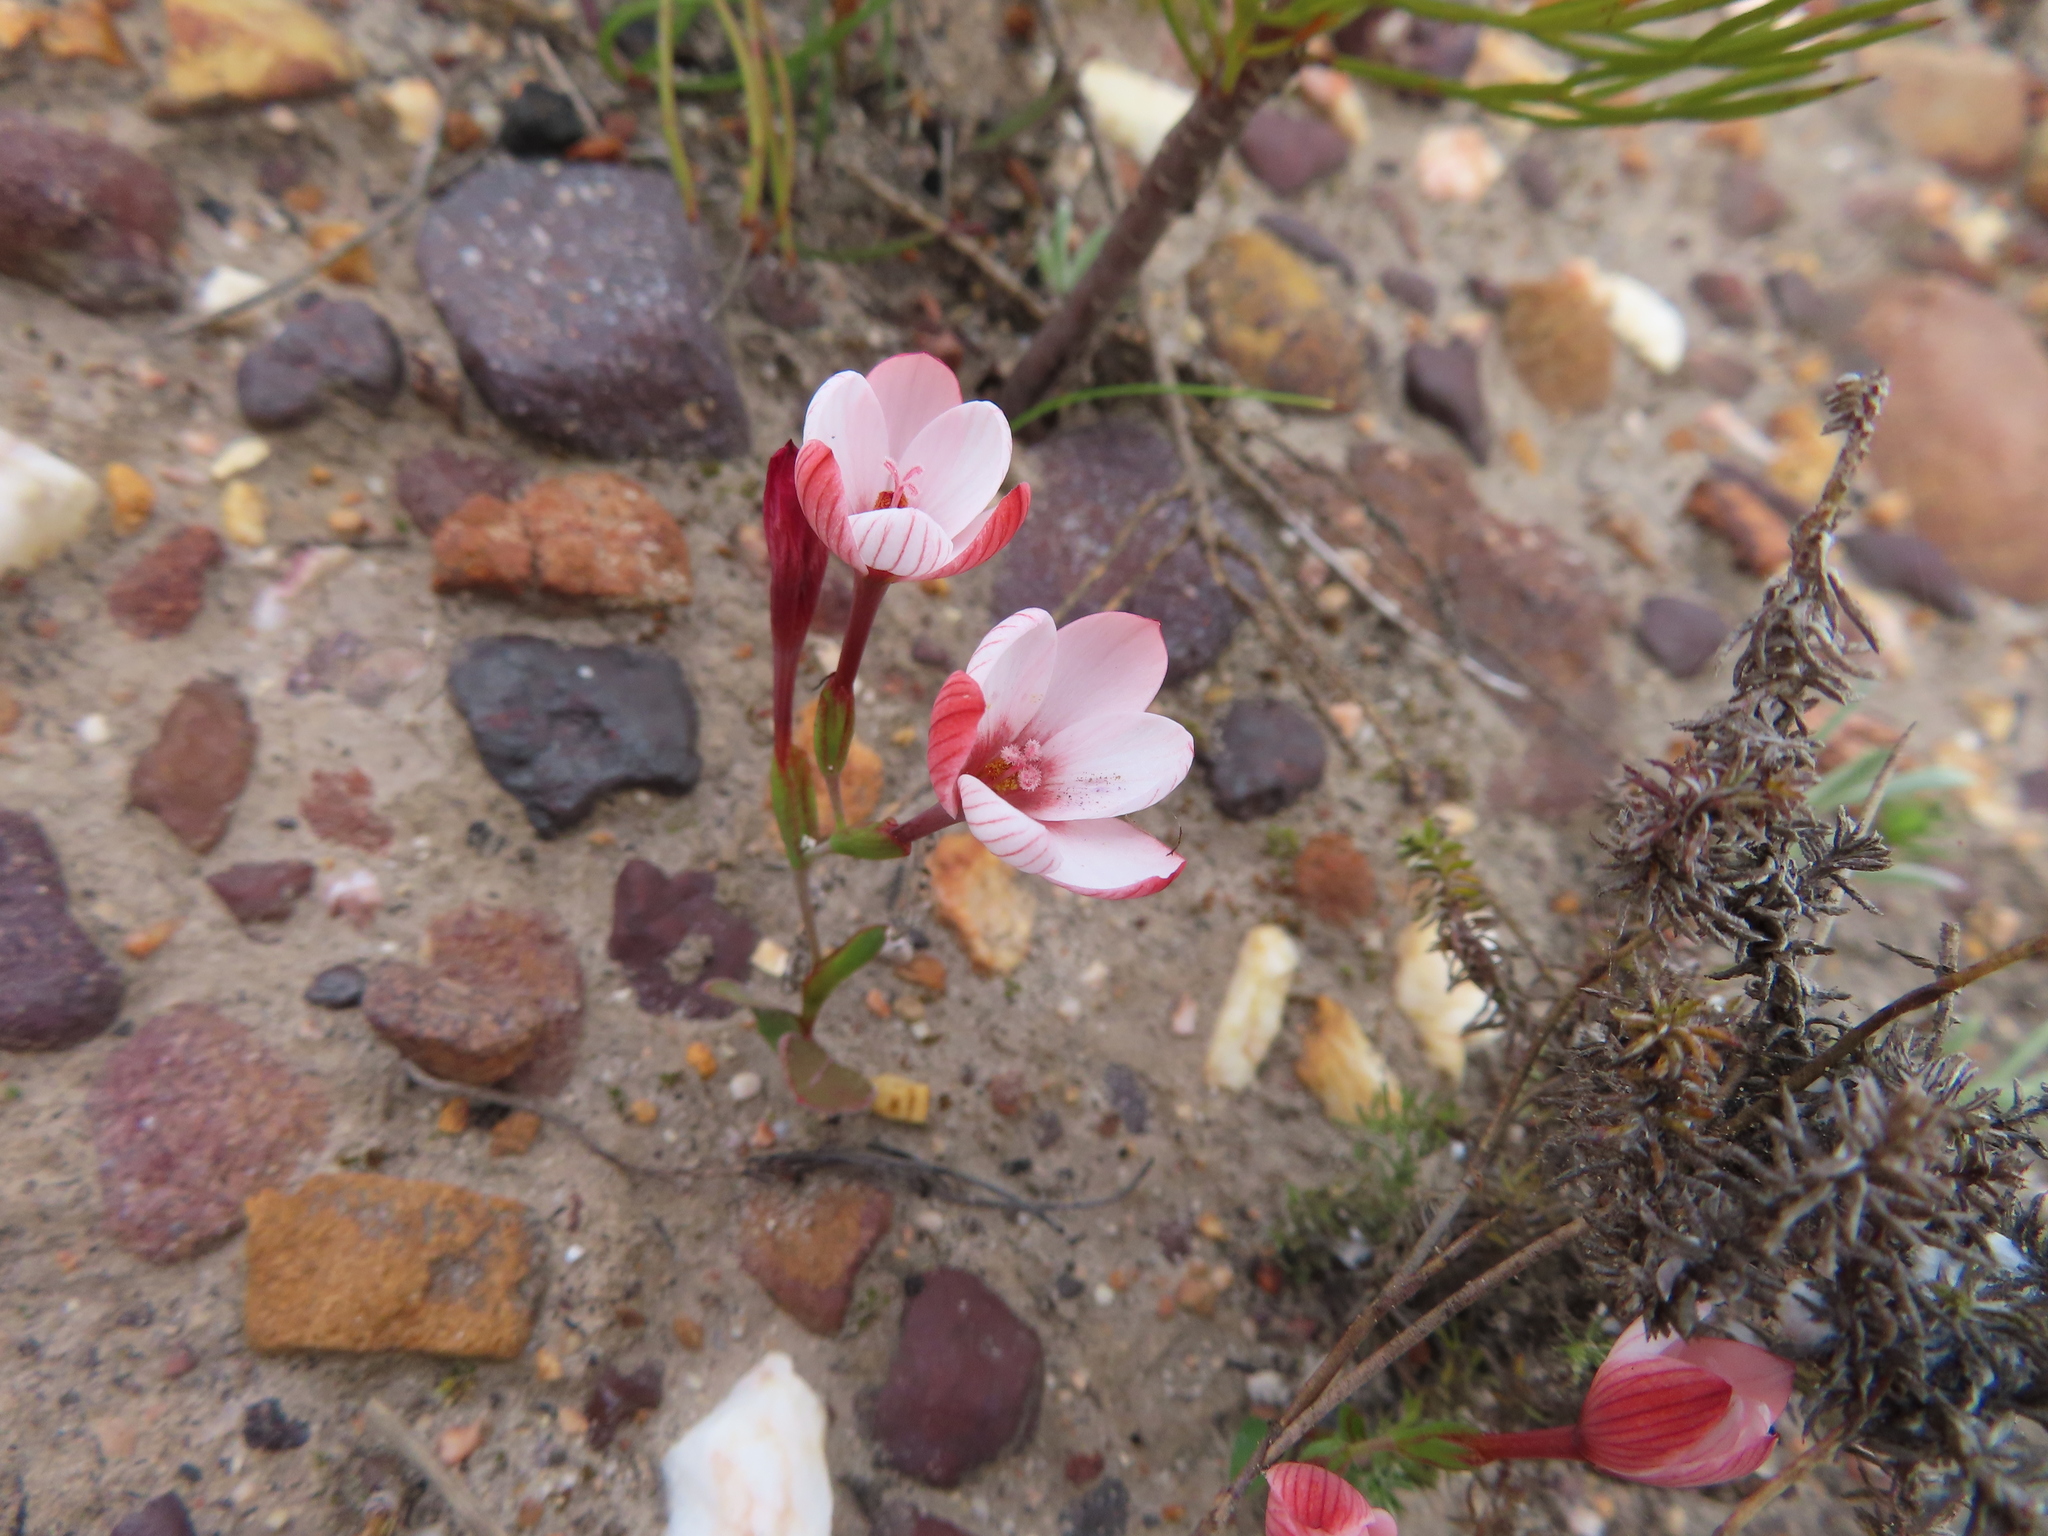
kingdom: Plantae
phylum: Tracheophyta
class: Liliopsida
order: Asparagales
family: Iridaceae
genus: Geissorhiza
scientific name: Geissorhiza ovata
